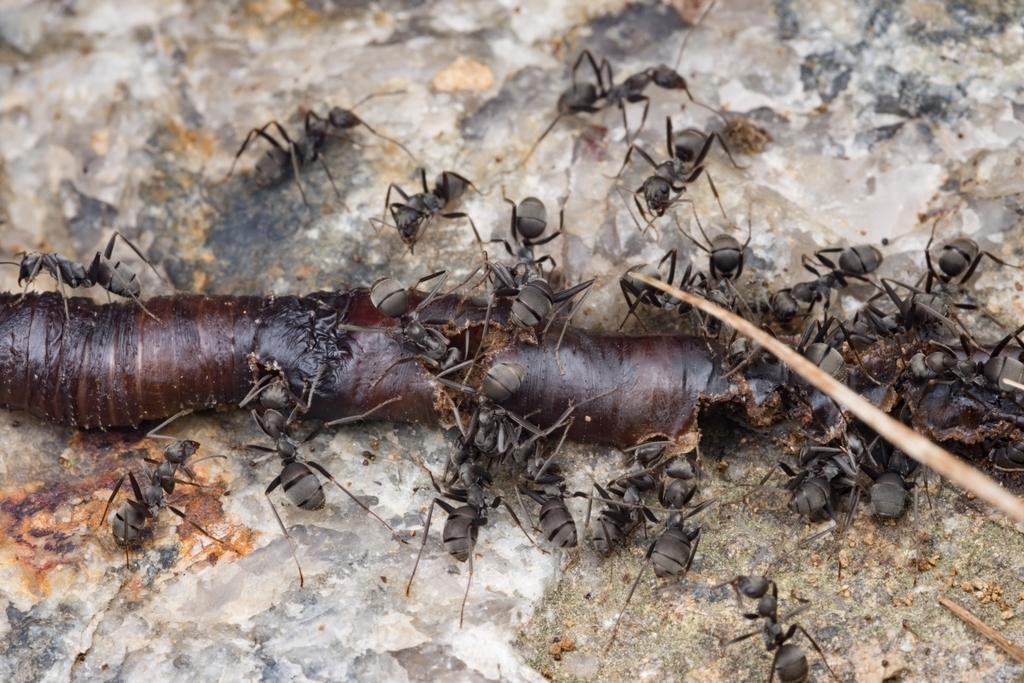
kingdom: Animalia
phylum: Arthropoda
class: Insecta
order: Hymenoptera
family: Formicidae
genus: Formica
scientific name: Formica japonica
